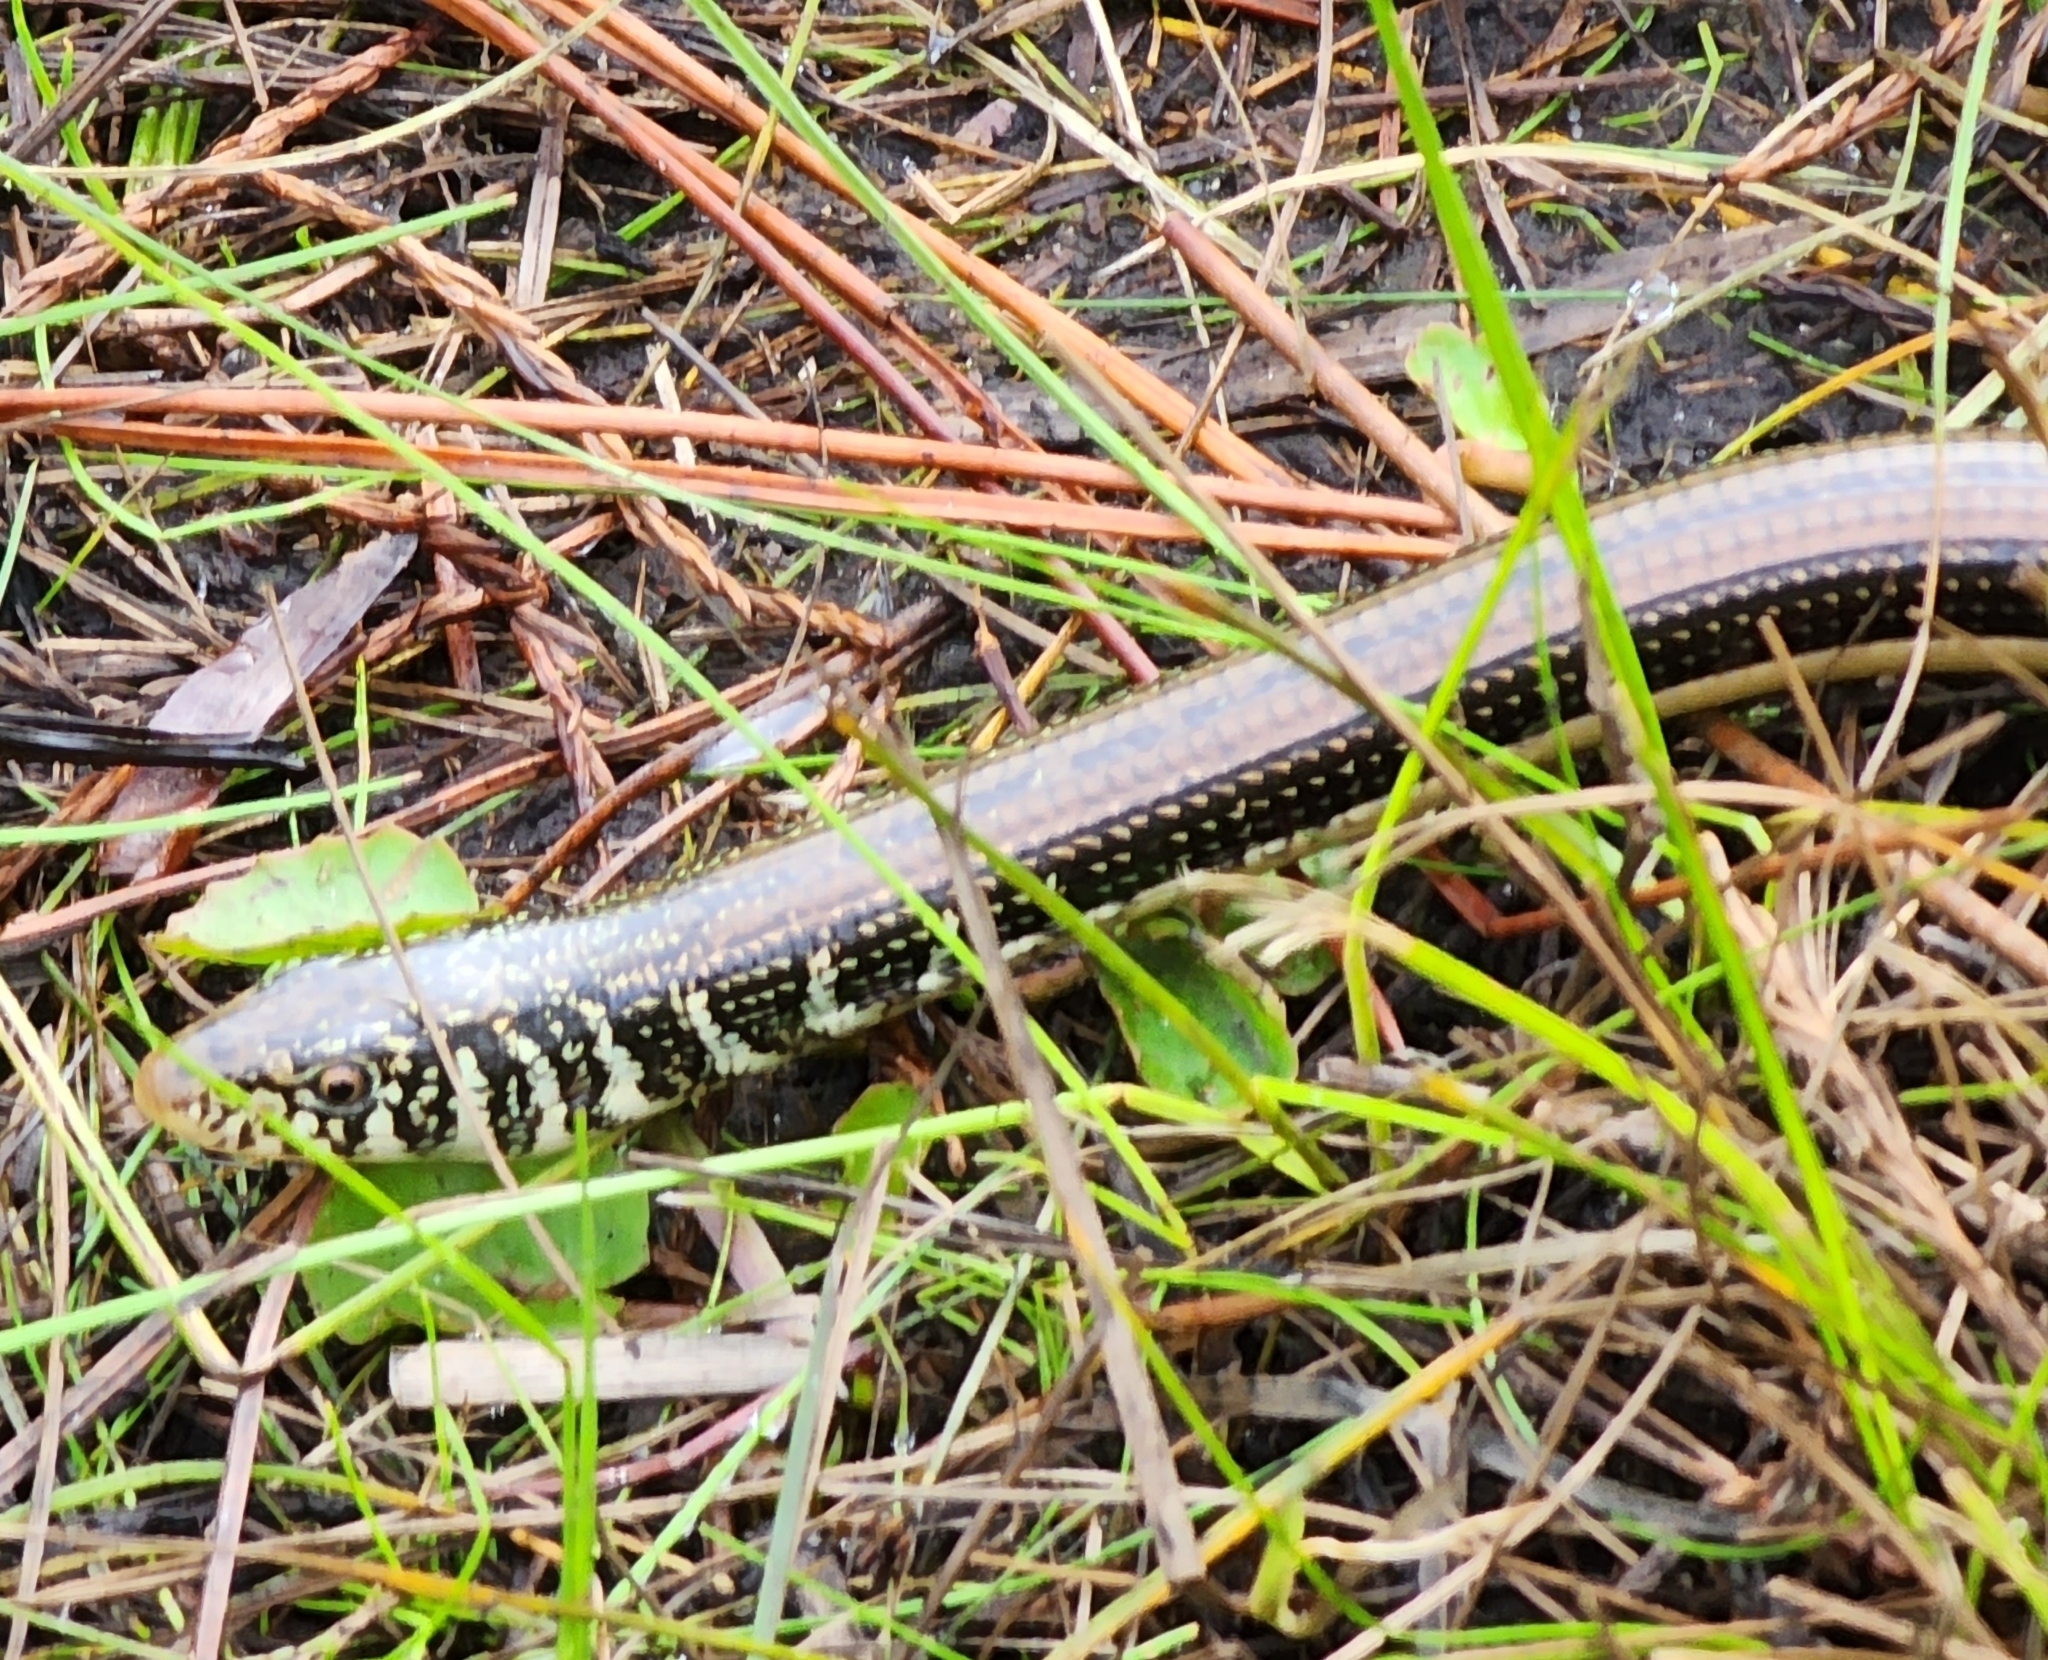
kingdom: Animalia
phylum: Chordata
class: Squamata
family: Anguidae
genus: Ophisaurus
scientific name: Ophisaurus ventralis
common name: Eastern glass lizard
